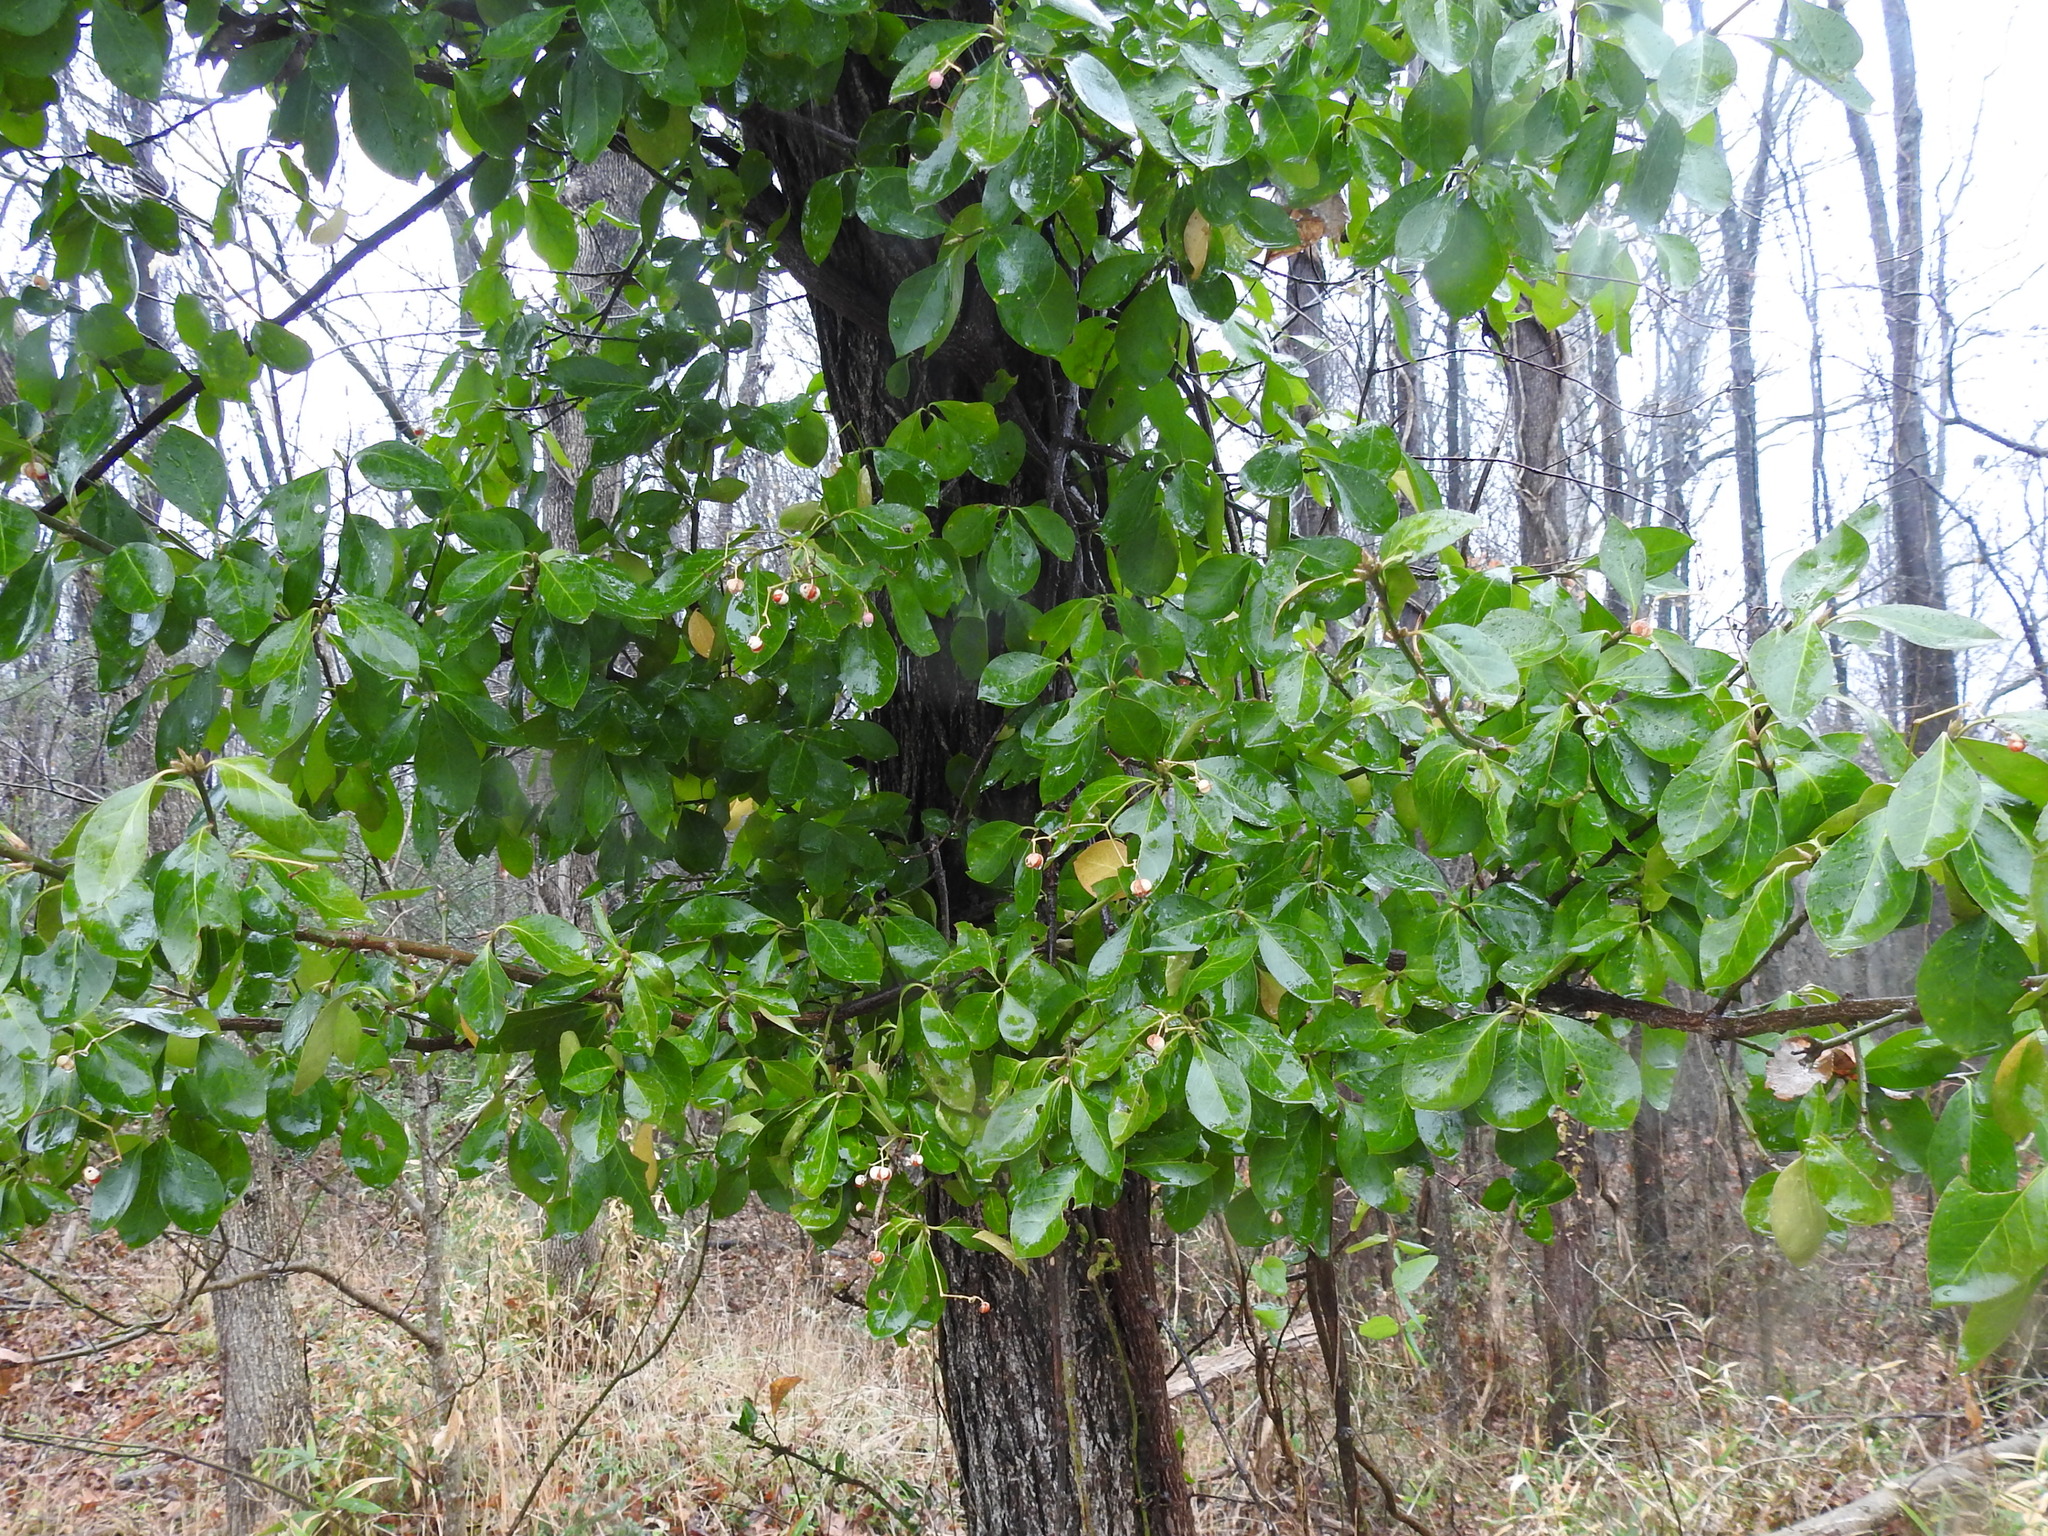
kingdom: Plantae
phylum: Tracheophyta
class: Magnoliopsida
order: Celastrales
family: Celastraceae
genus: Euonymus
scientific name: Euonymus fortunei
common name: Climbing euonymus
